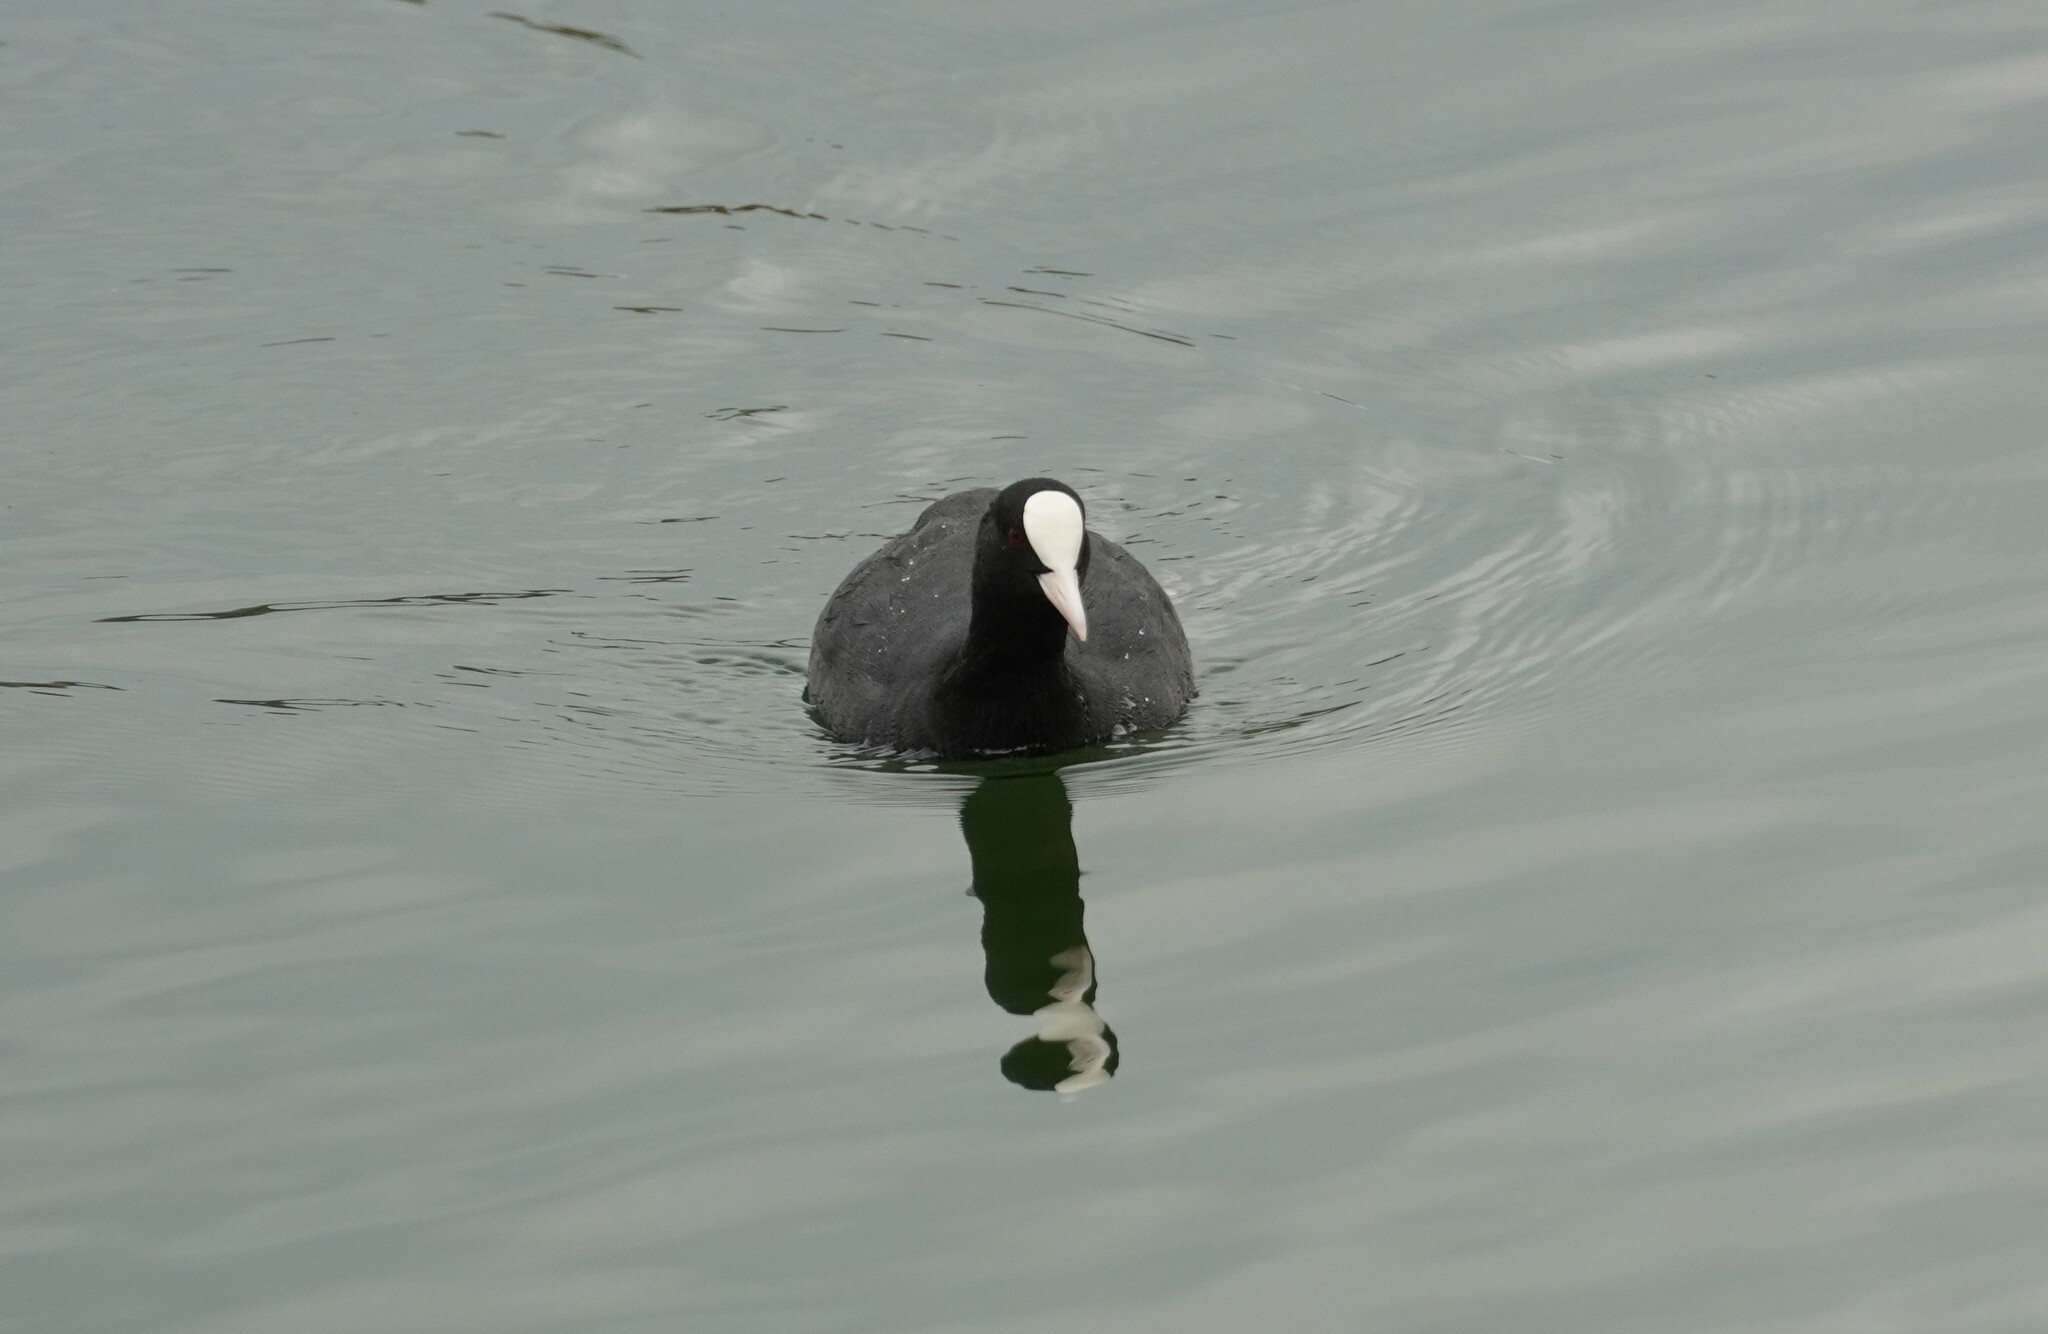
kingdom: Animalia
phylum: Chordata
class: Aves
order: Gruiformes
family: Rallidae
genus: Fulica
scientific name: Fulica atra
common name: Eurasian coot
